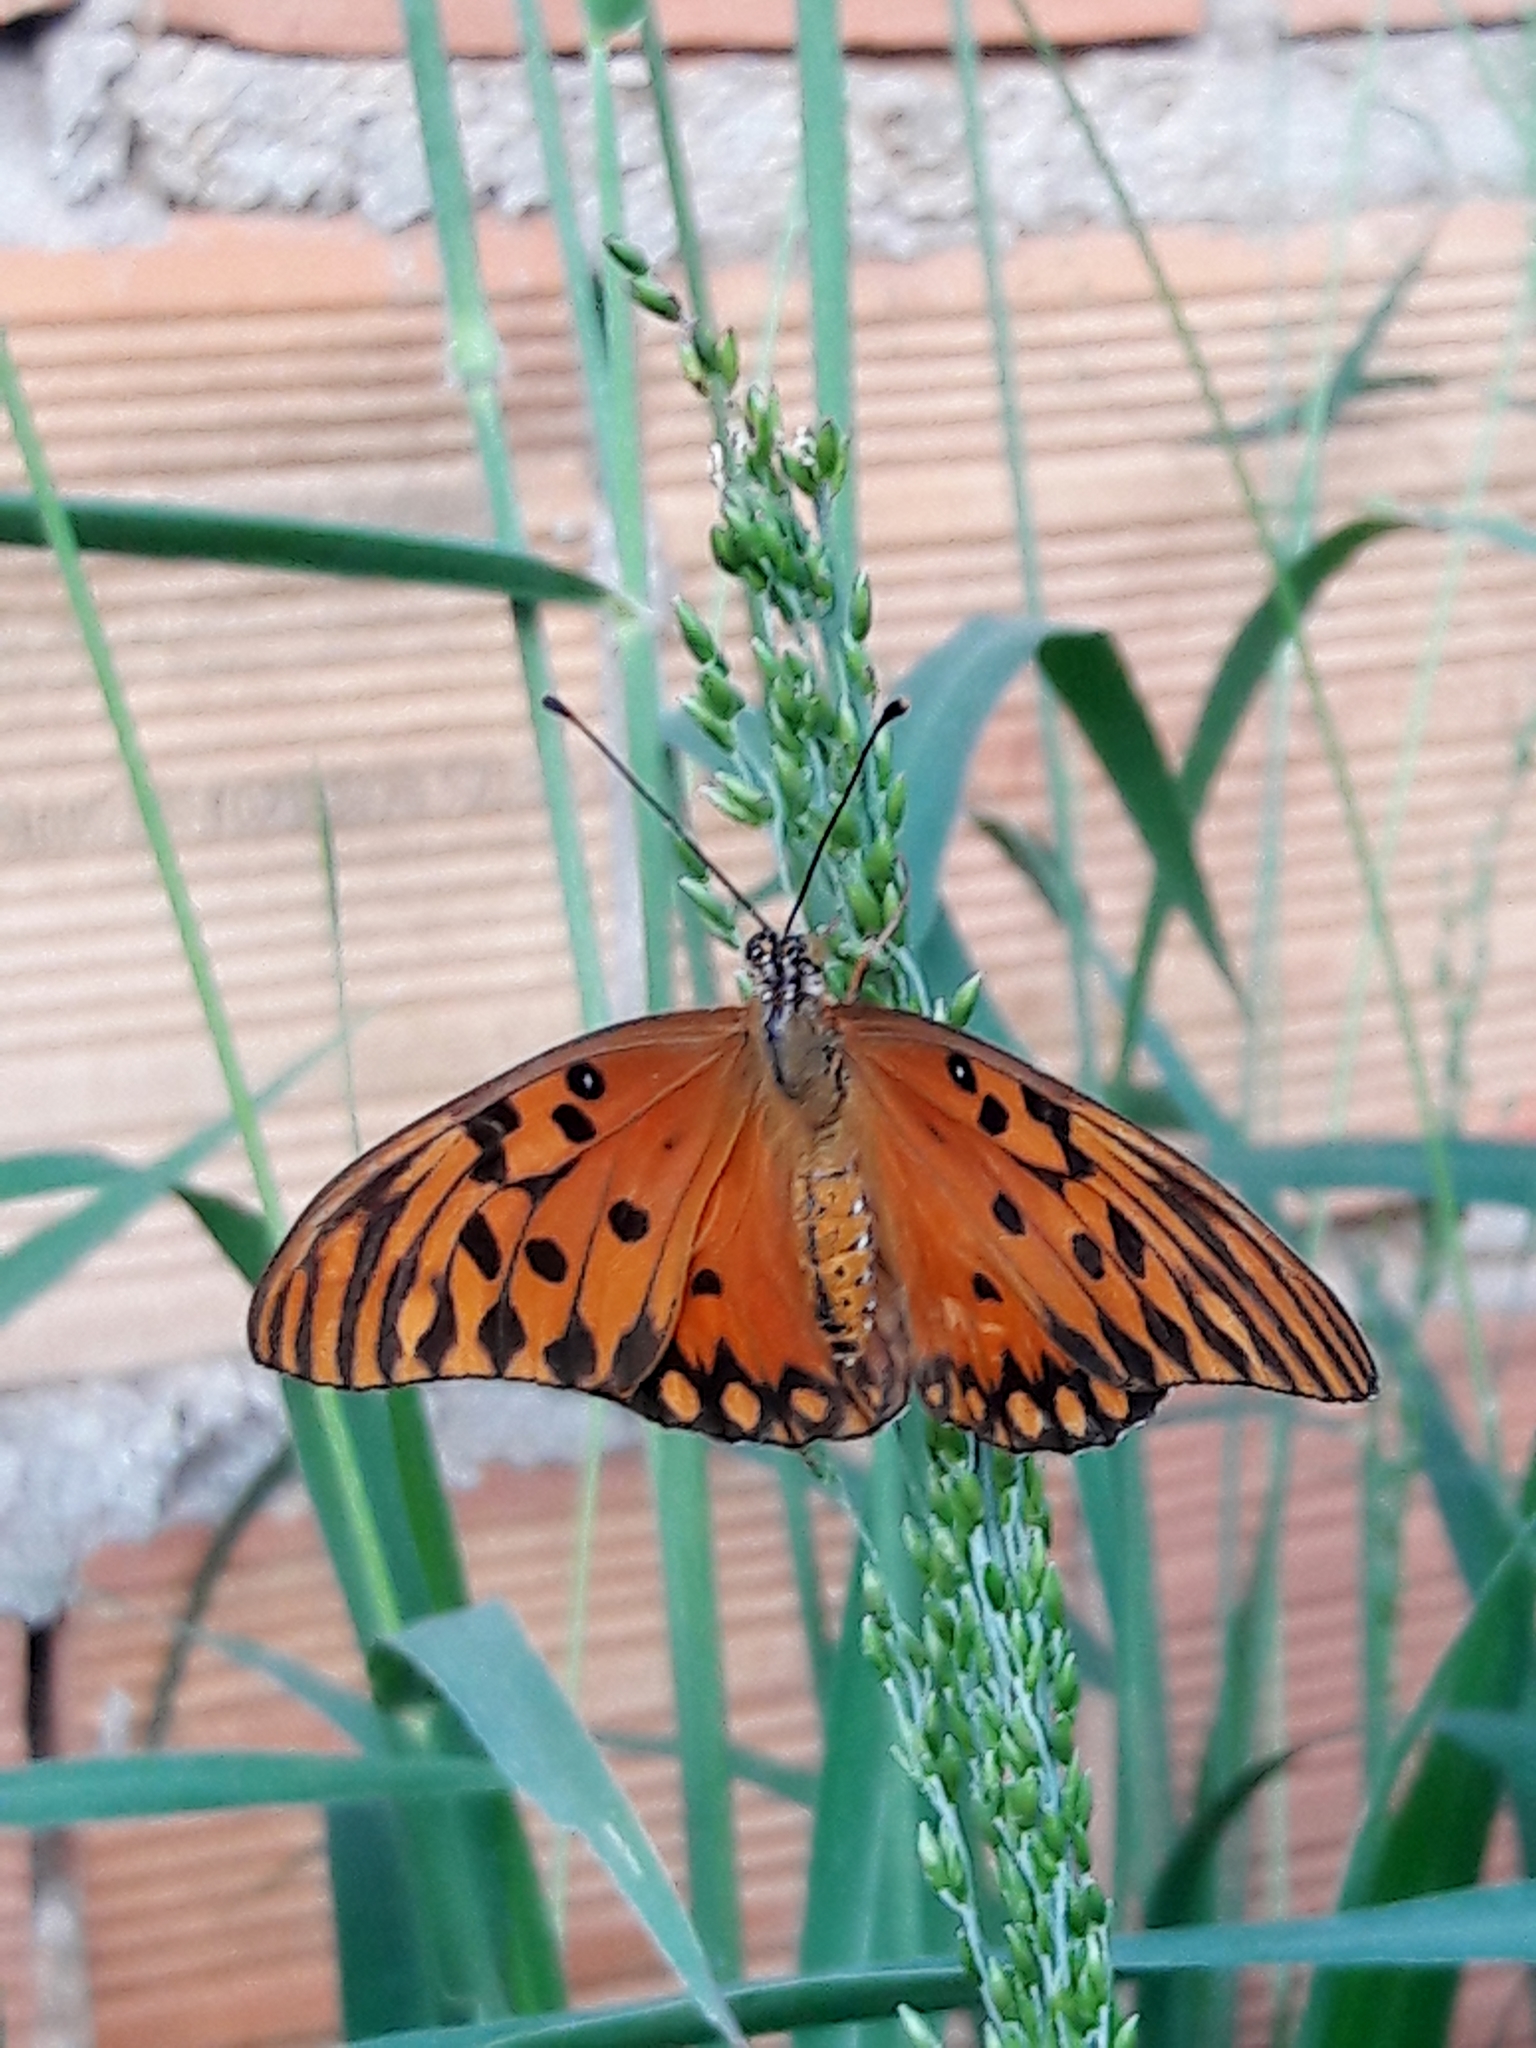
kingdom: Animalia
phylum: Arthropoda
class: Insecta
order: Lepidoptera
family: Nymphalidae
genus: Dione
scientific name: Dione vanillae
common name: Gulf fritillary
